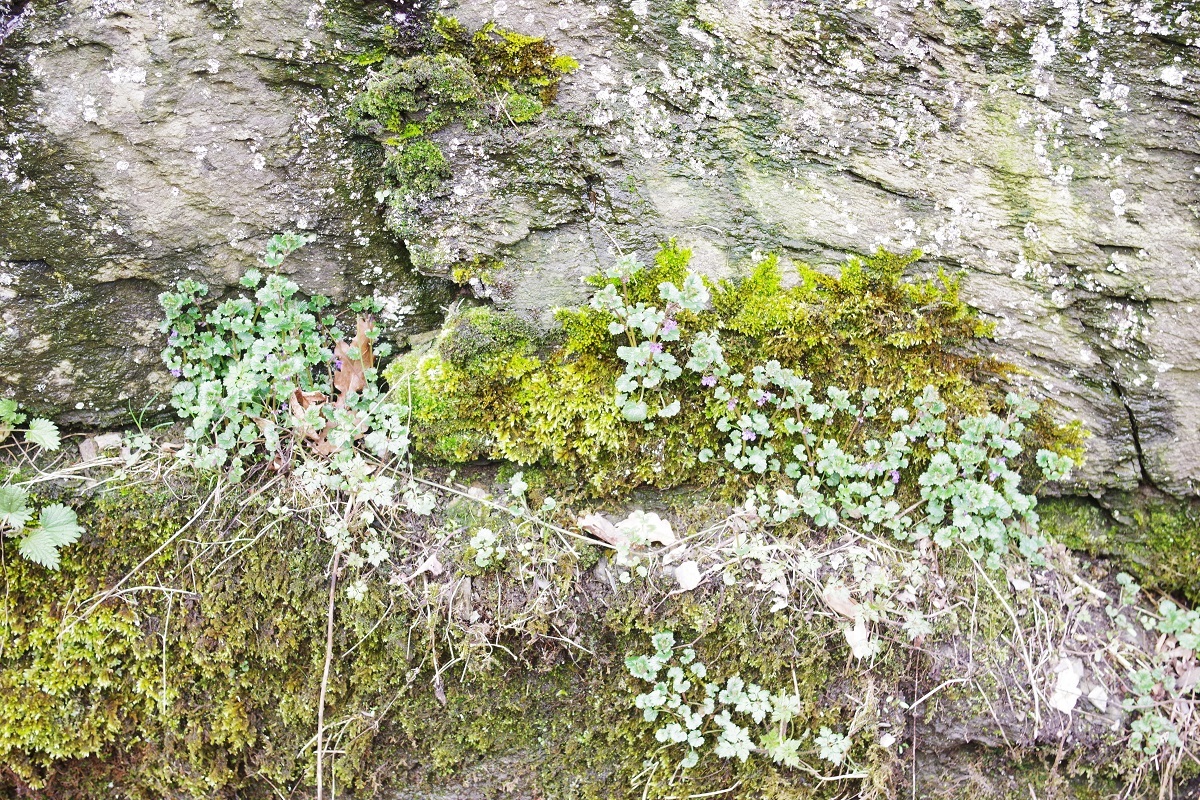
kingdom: Plantae
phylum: Tracheophyta
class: Magnoliopsida
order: Lamiales
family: Lamiaceae
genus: Glechoma
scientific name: Glechoma hederacea
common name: Ground ivy
